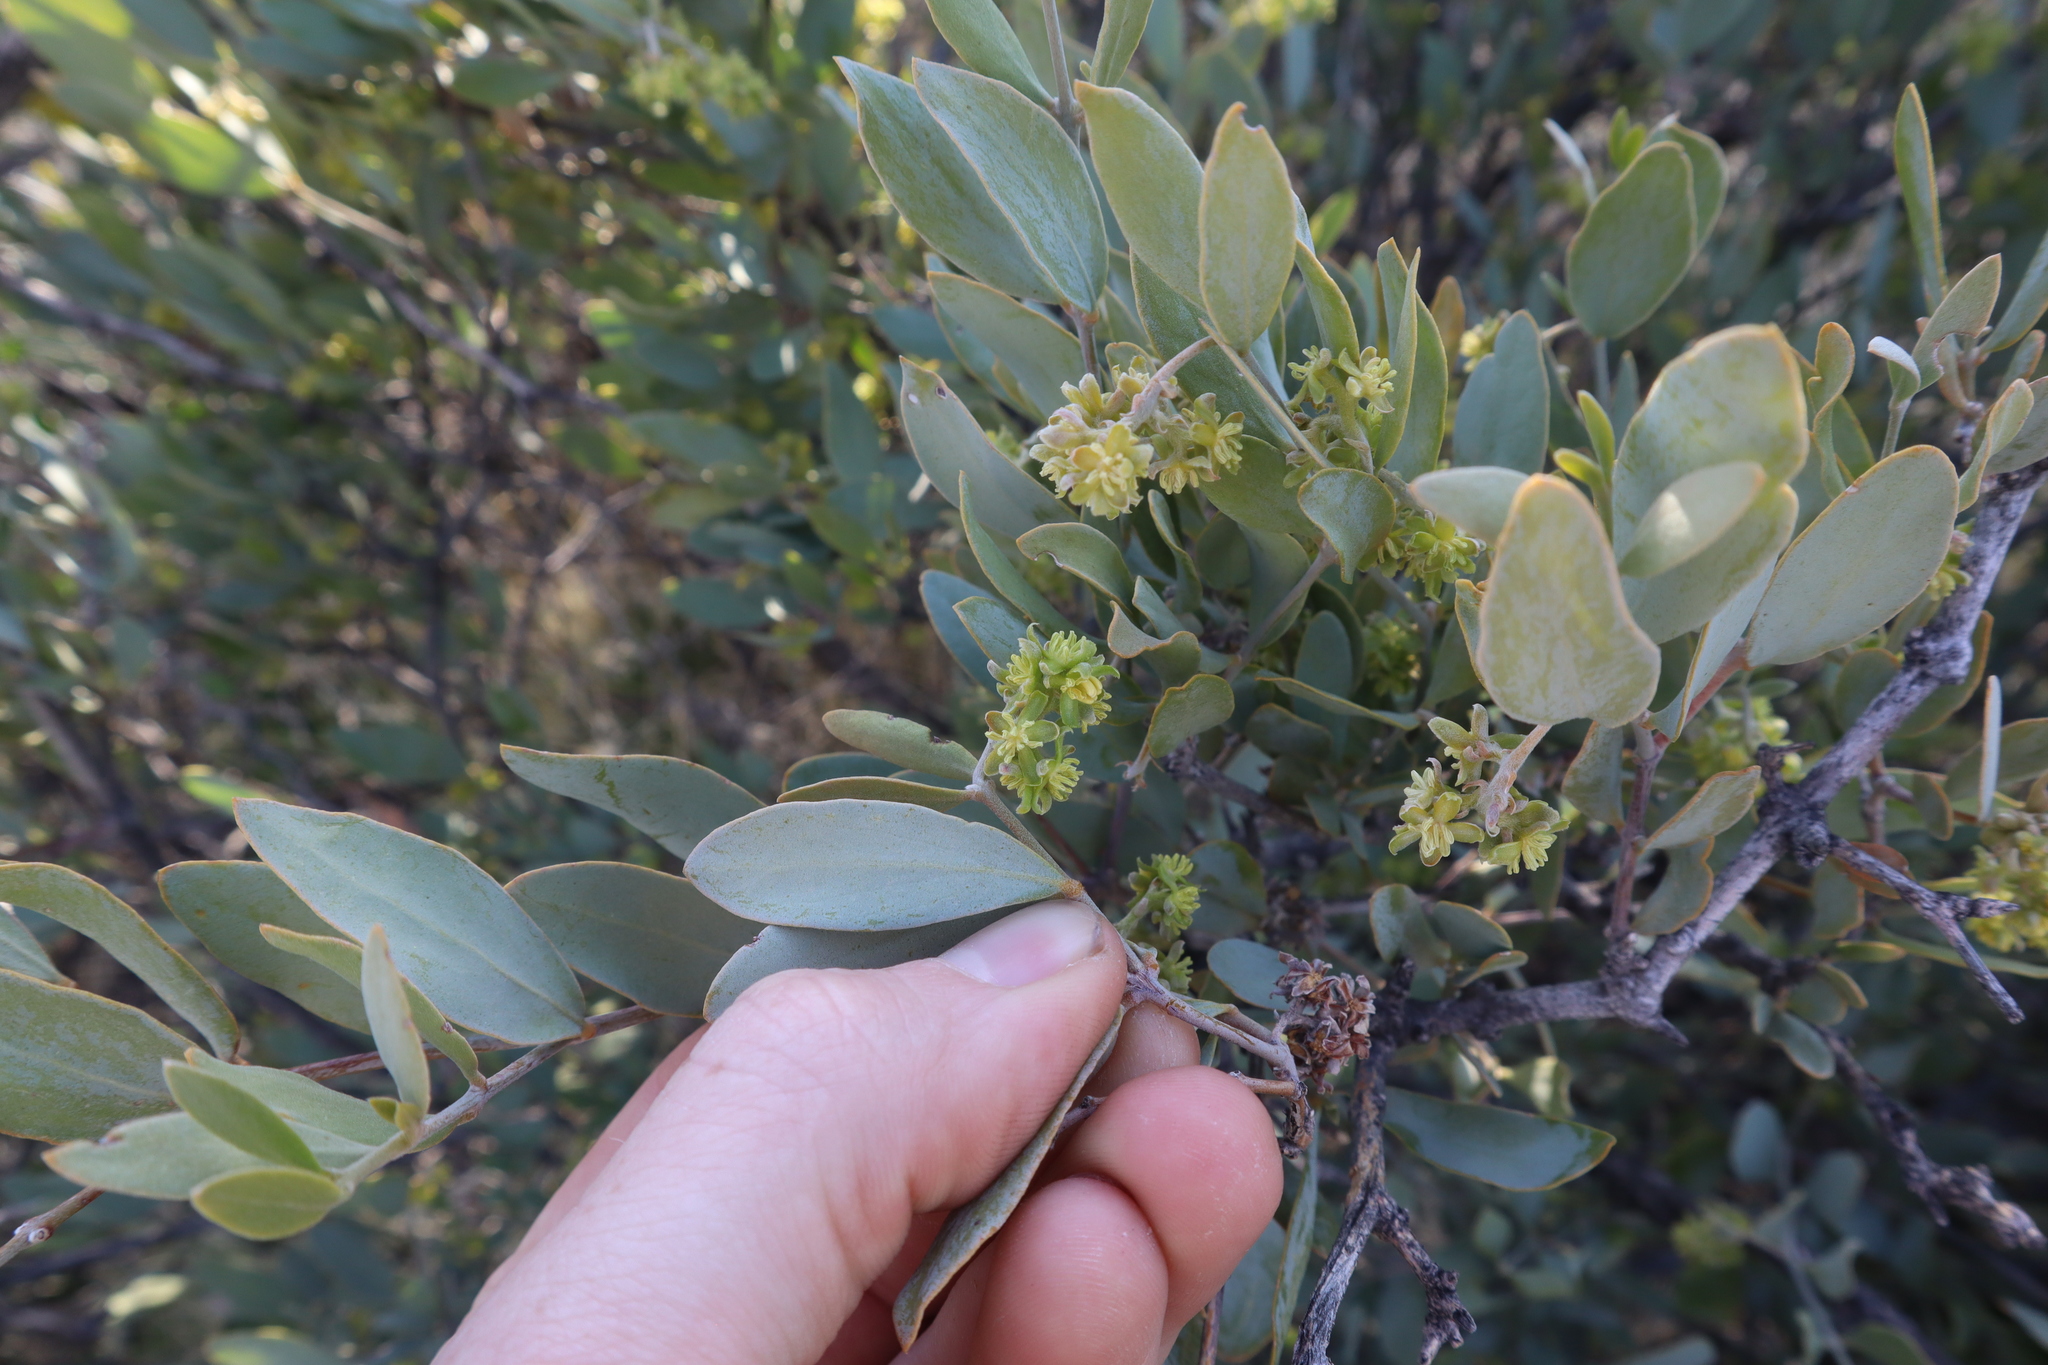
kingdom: Plantae
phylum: Tracheophyta
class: Magnoliopsida
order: Caryophyllales
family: Simmondsiaceae
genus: Simmondsia
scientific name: Simmondsia chinensis
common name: Jojoba
